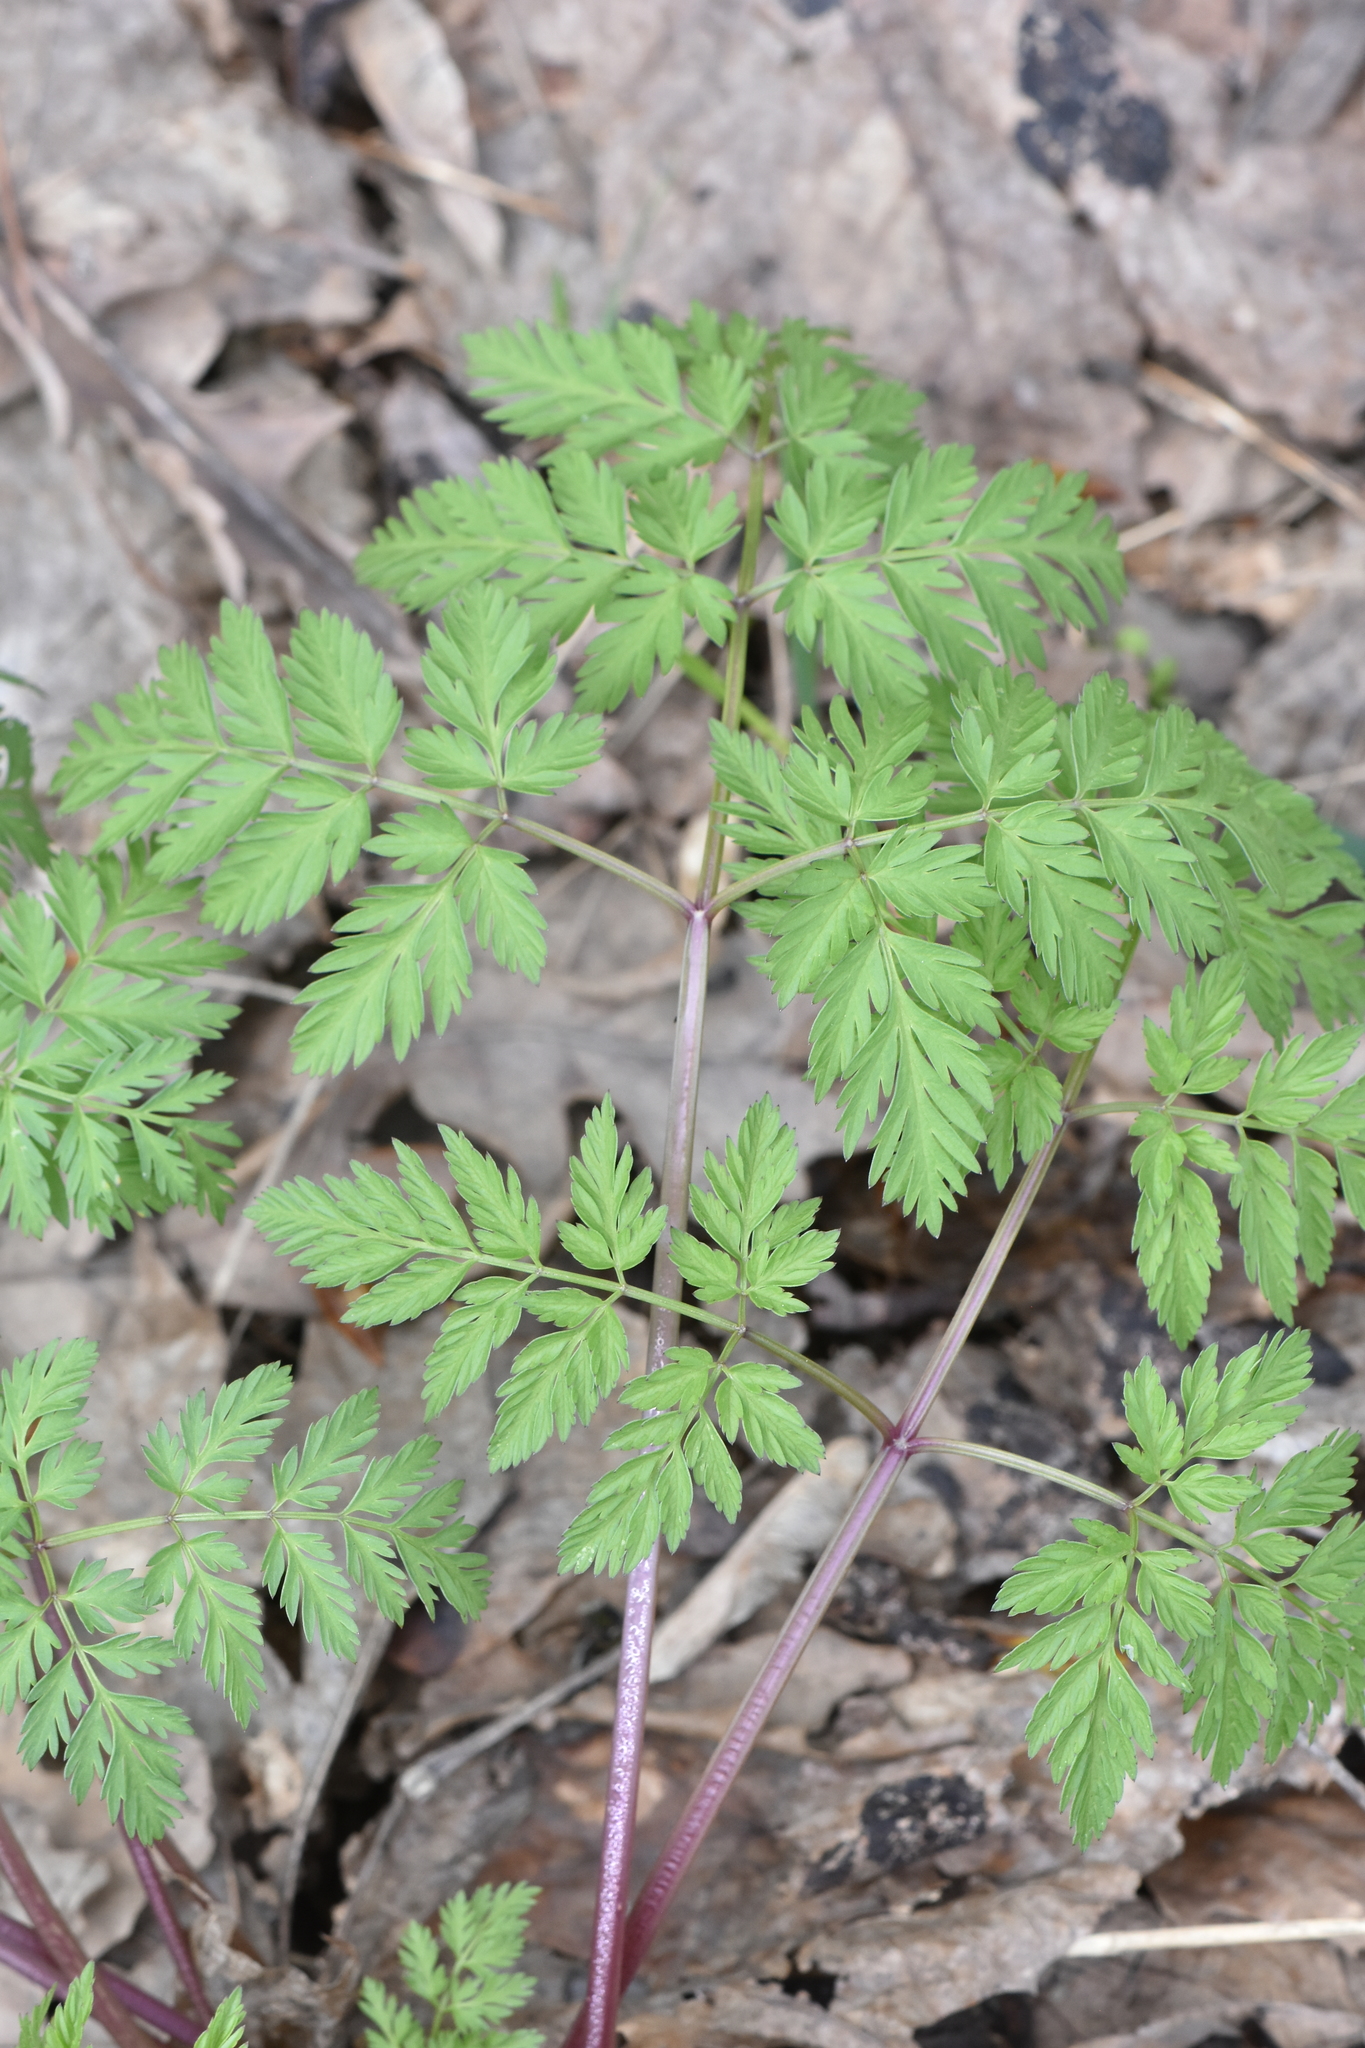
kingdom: Plantae
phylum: Tracheophyta
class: Magnoliopsida
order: Apiales
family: Apiaceae
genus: Anthriscus
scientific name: Anthriscus sylvestris
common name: Cow parsley
